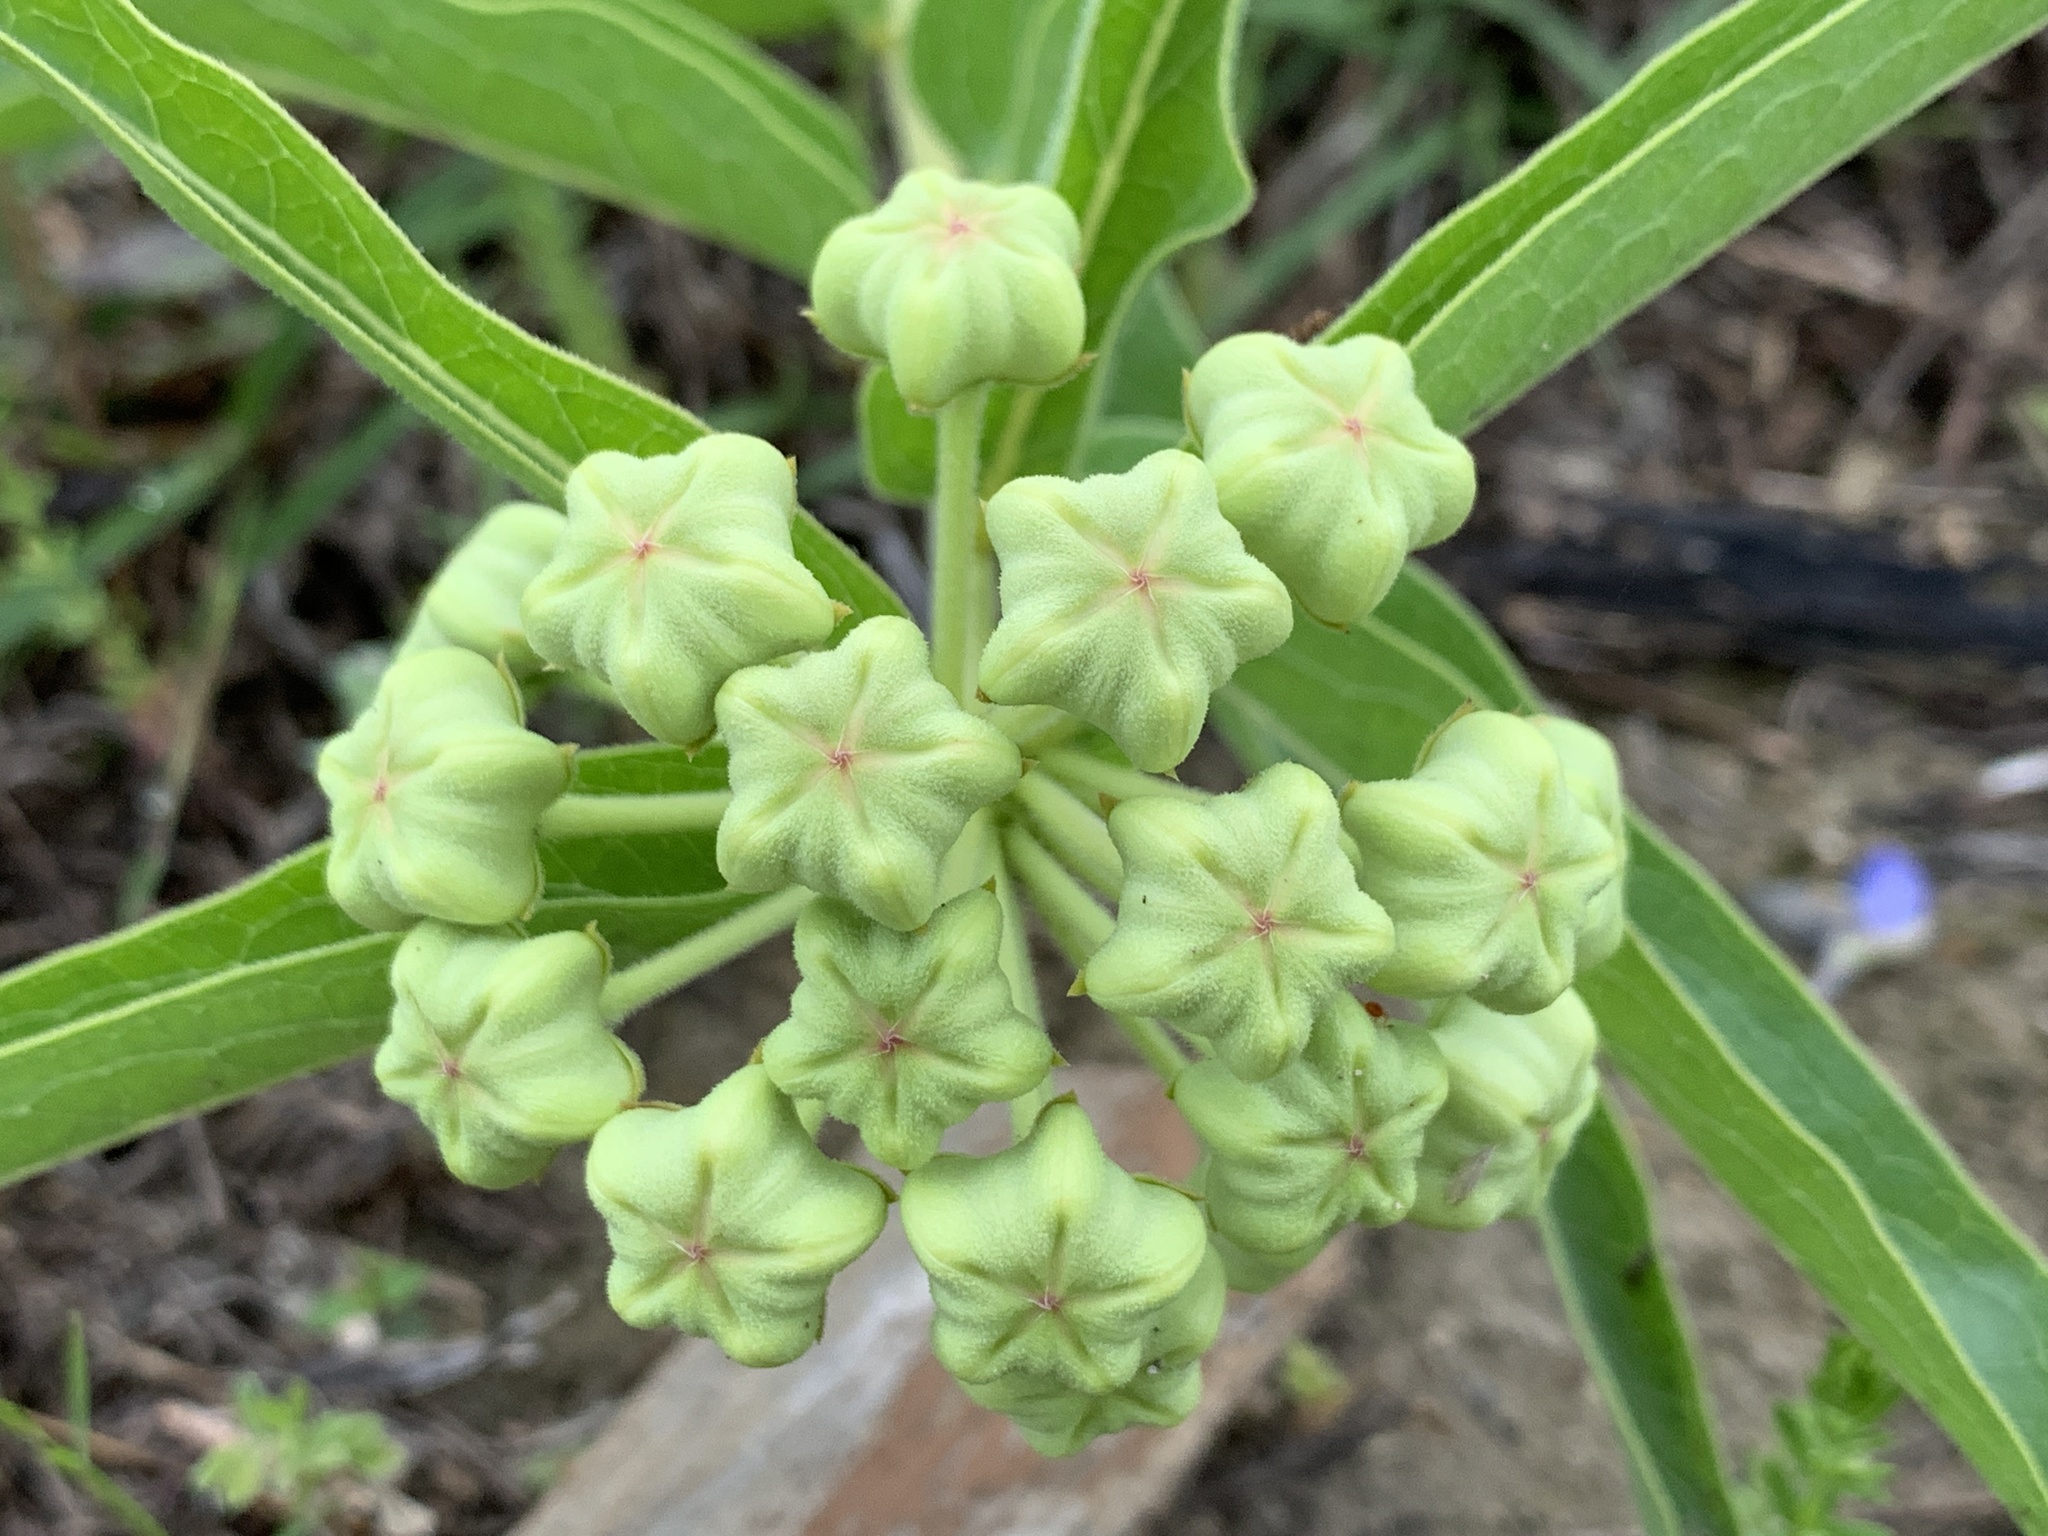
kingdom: Plantae
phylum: Tracheophyta
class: Magnoliopsida
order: Gentianales
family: Apocynaceae
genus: Asclepias
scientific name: Asclepias asperula
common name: Antelope horns
